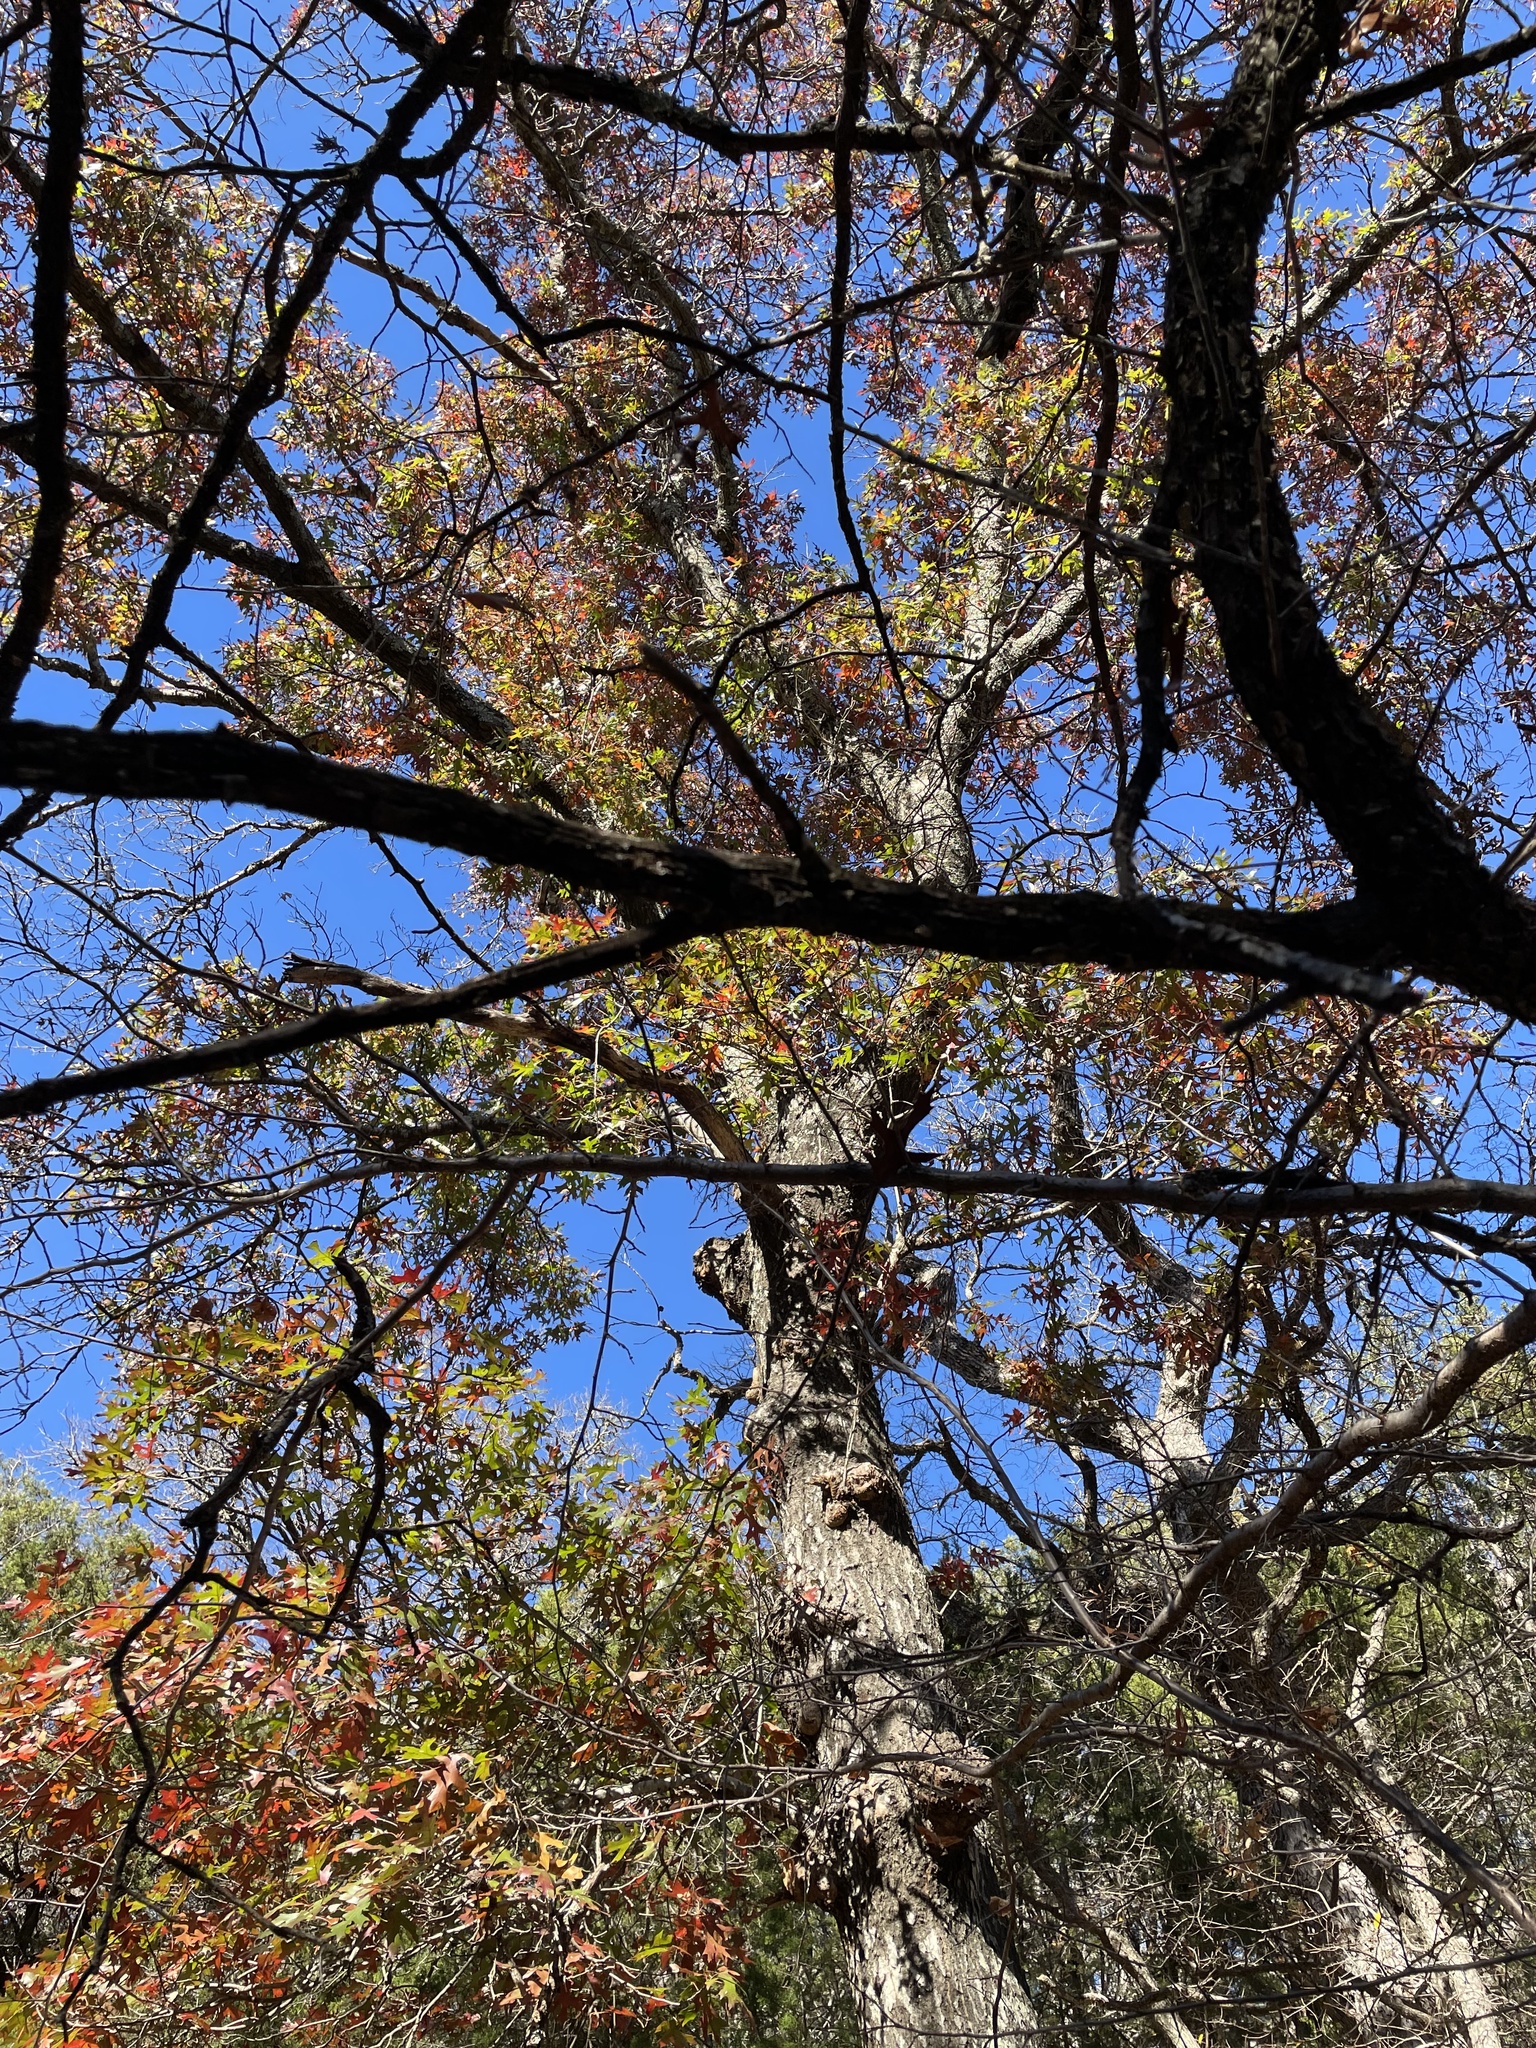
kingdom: Plantae
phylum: Tracheophyta
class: Magnoliopsida
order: Fagales
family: Fagaceae
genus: Quercus
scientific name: Quercus buckleyi
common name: Buckley oak
